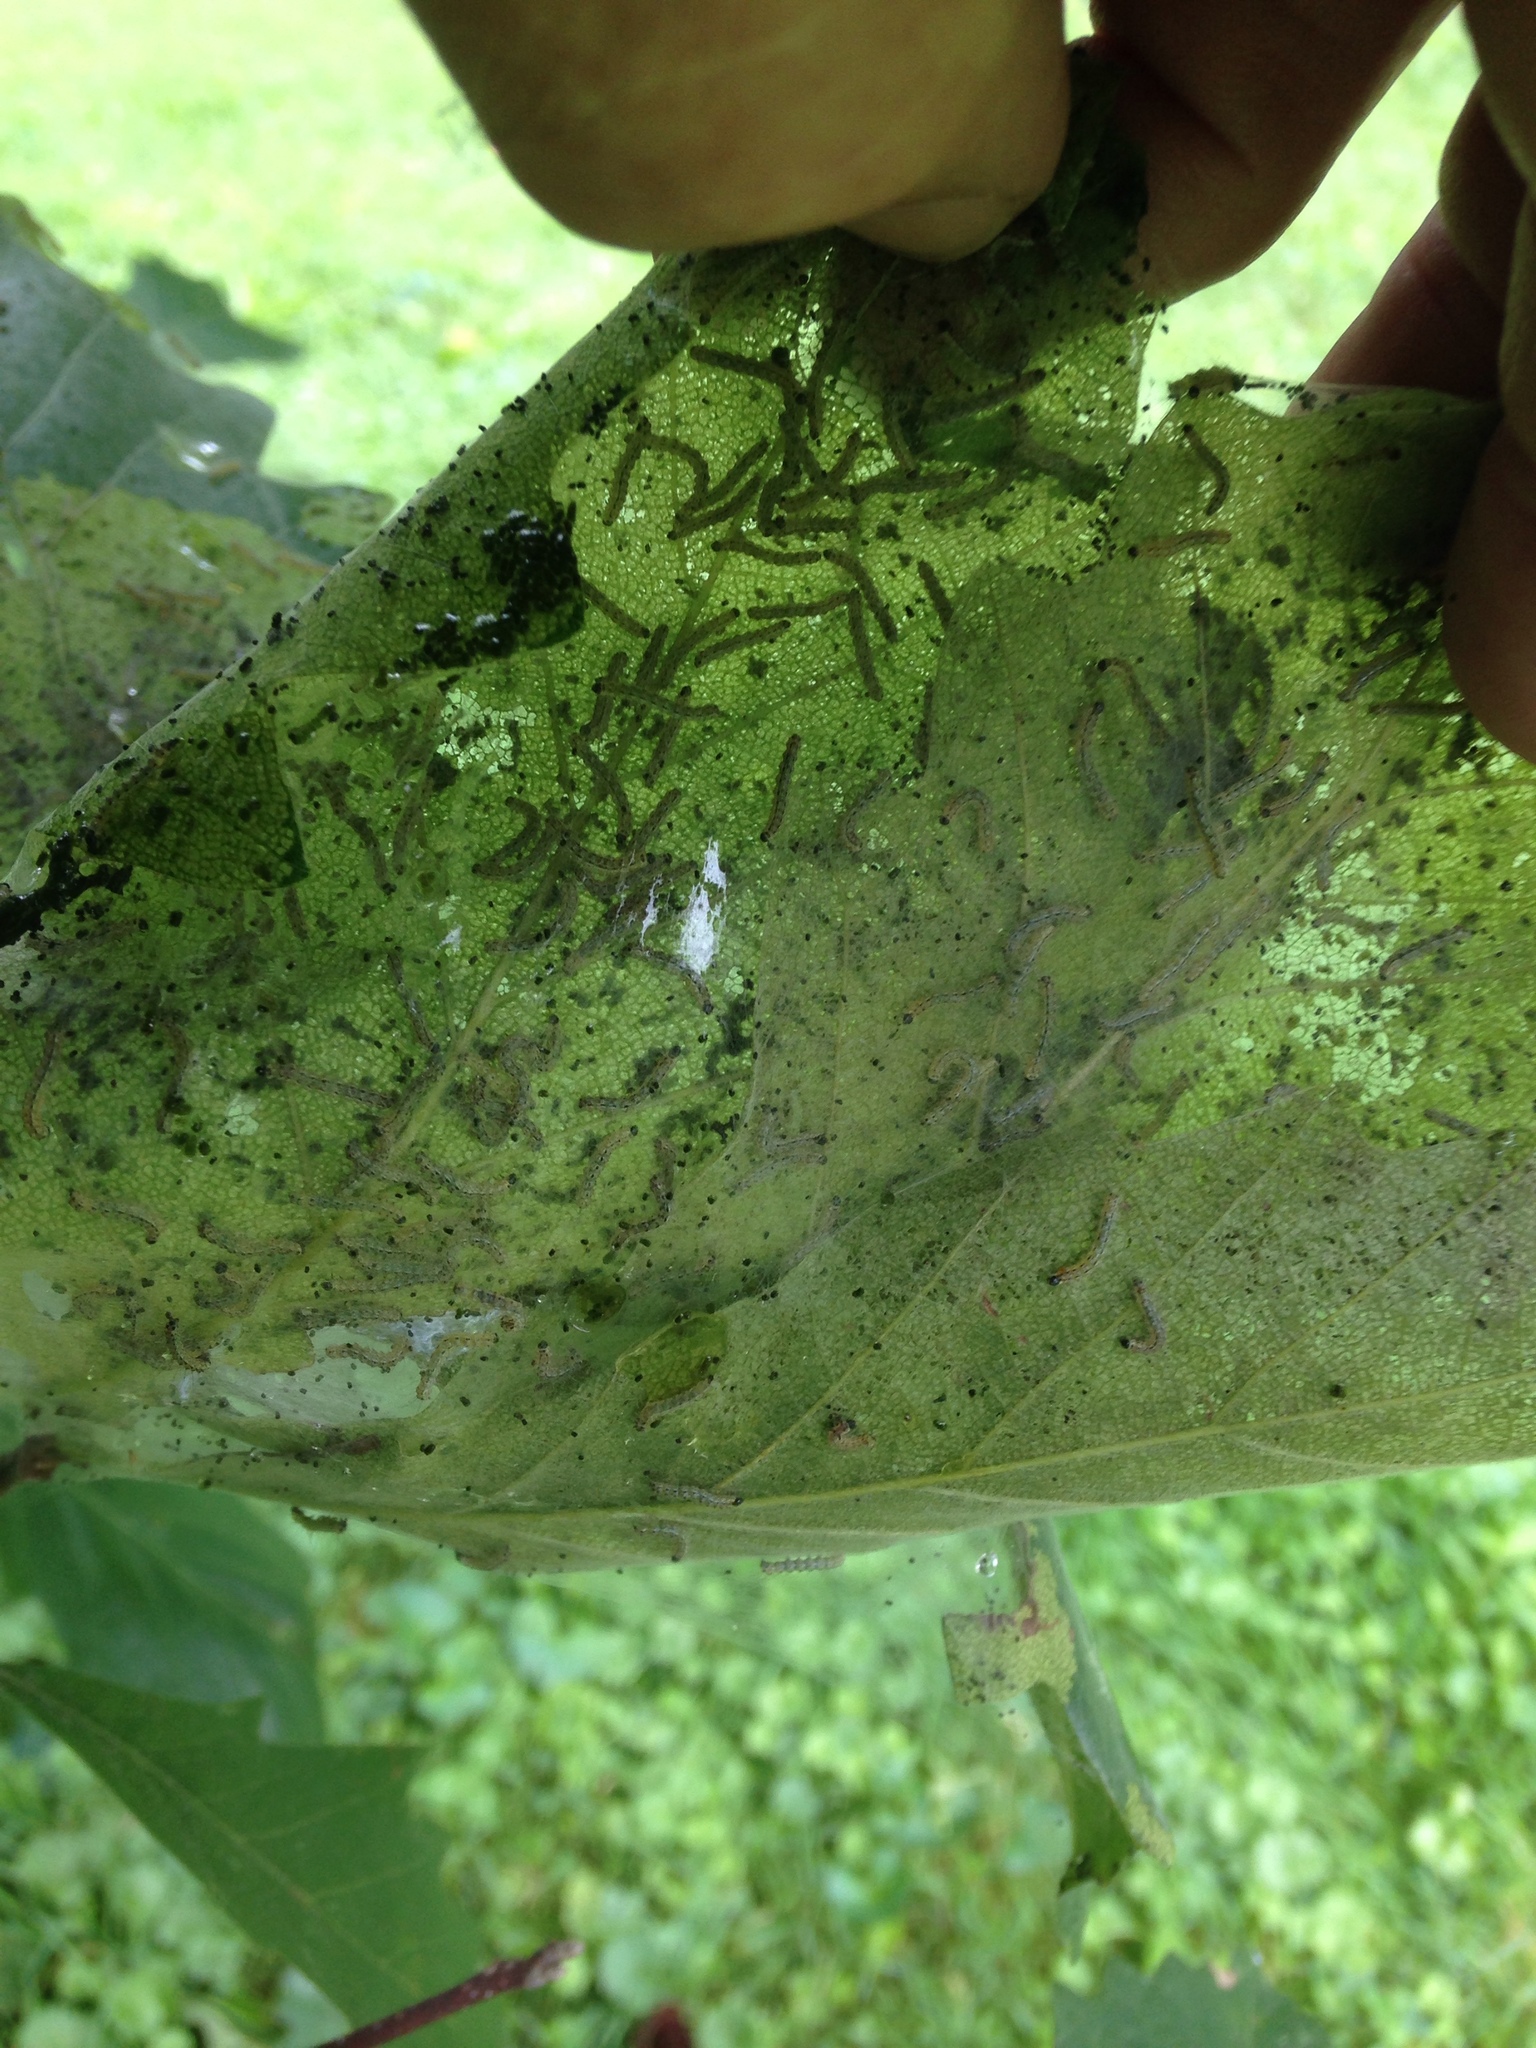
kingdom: Animalia
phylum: Arthropoda
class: Insecta
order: Lepidoptera
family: Erebidae
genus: Hyphantria
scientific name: Hyphantria cunea
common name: American white moth
